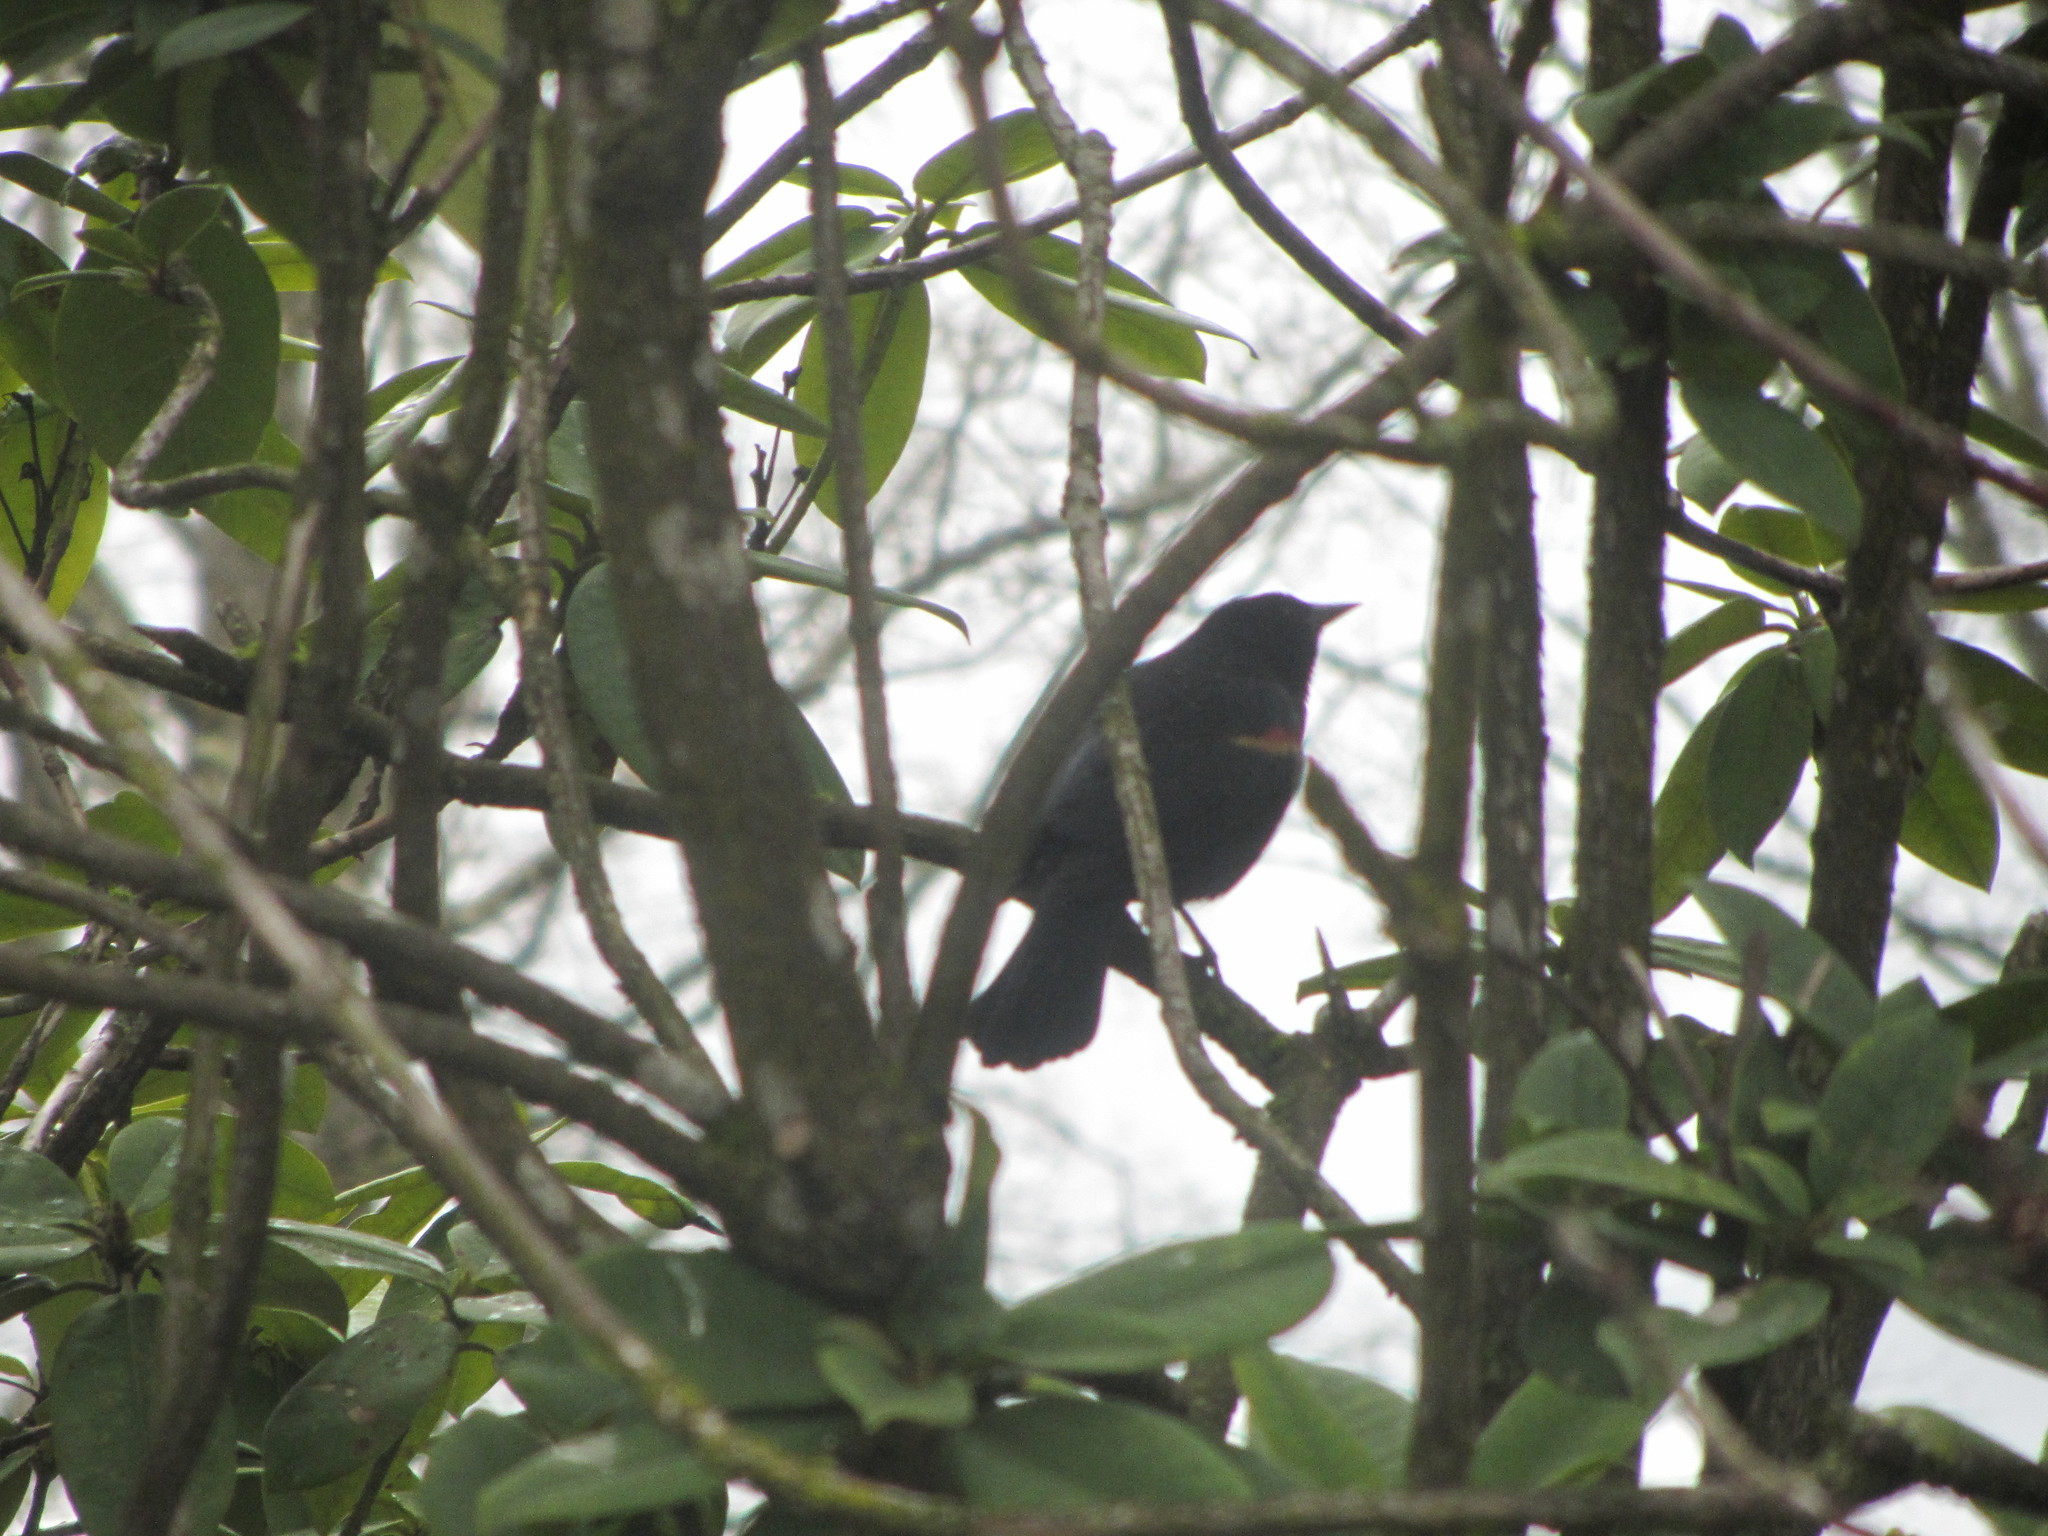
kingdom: Animalia
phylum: Chordata
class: Aves
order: Passeriformes
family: Icteridae
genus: Agelaius
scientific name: Agelaius phoeniceus
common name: Red-winged blackbird
